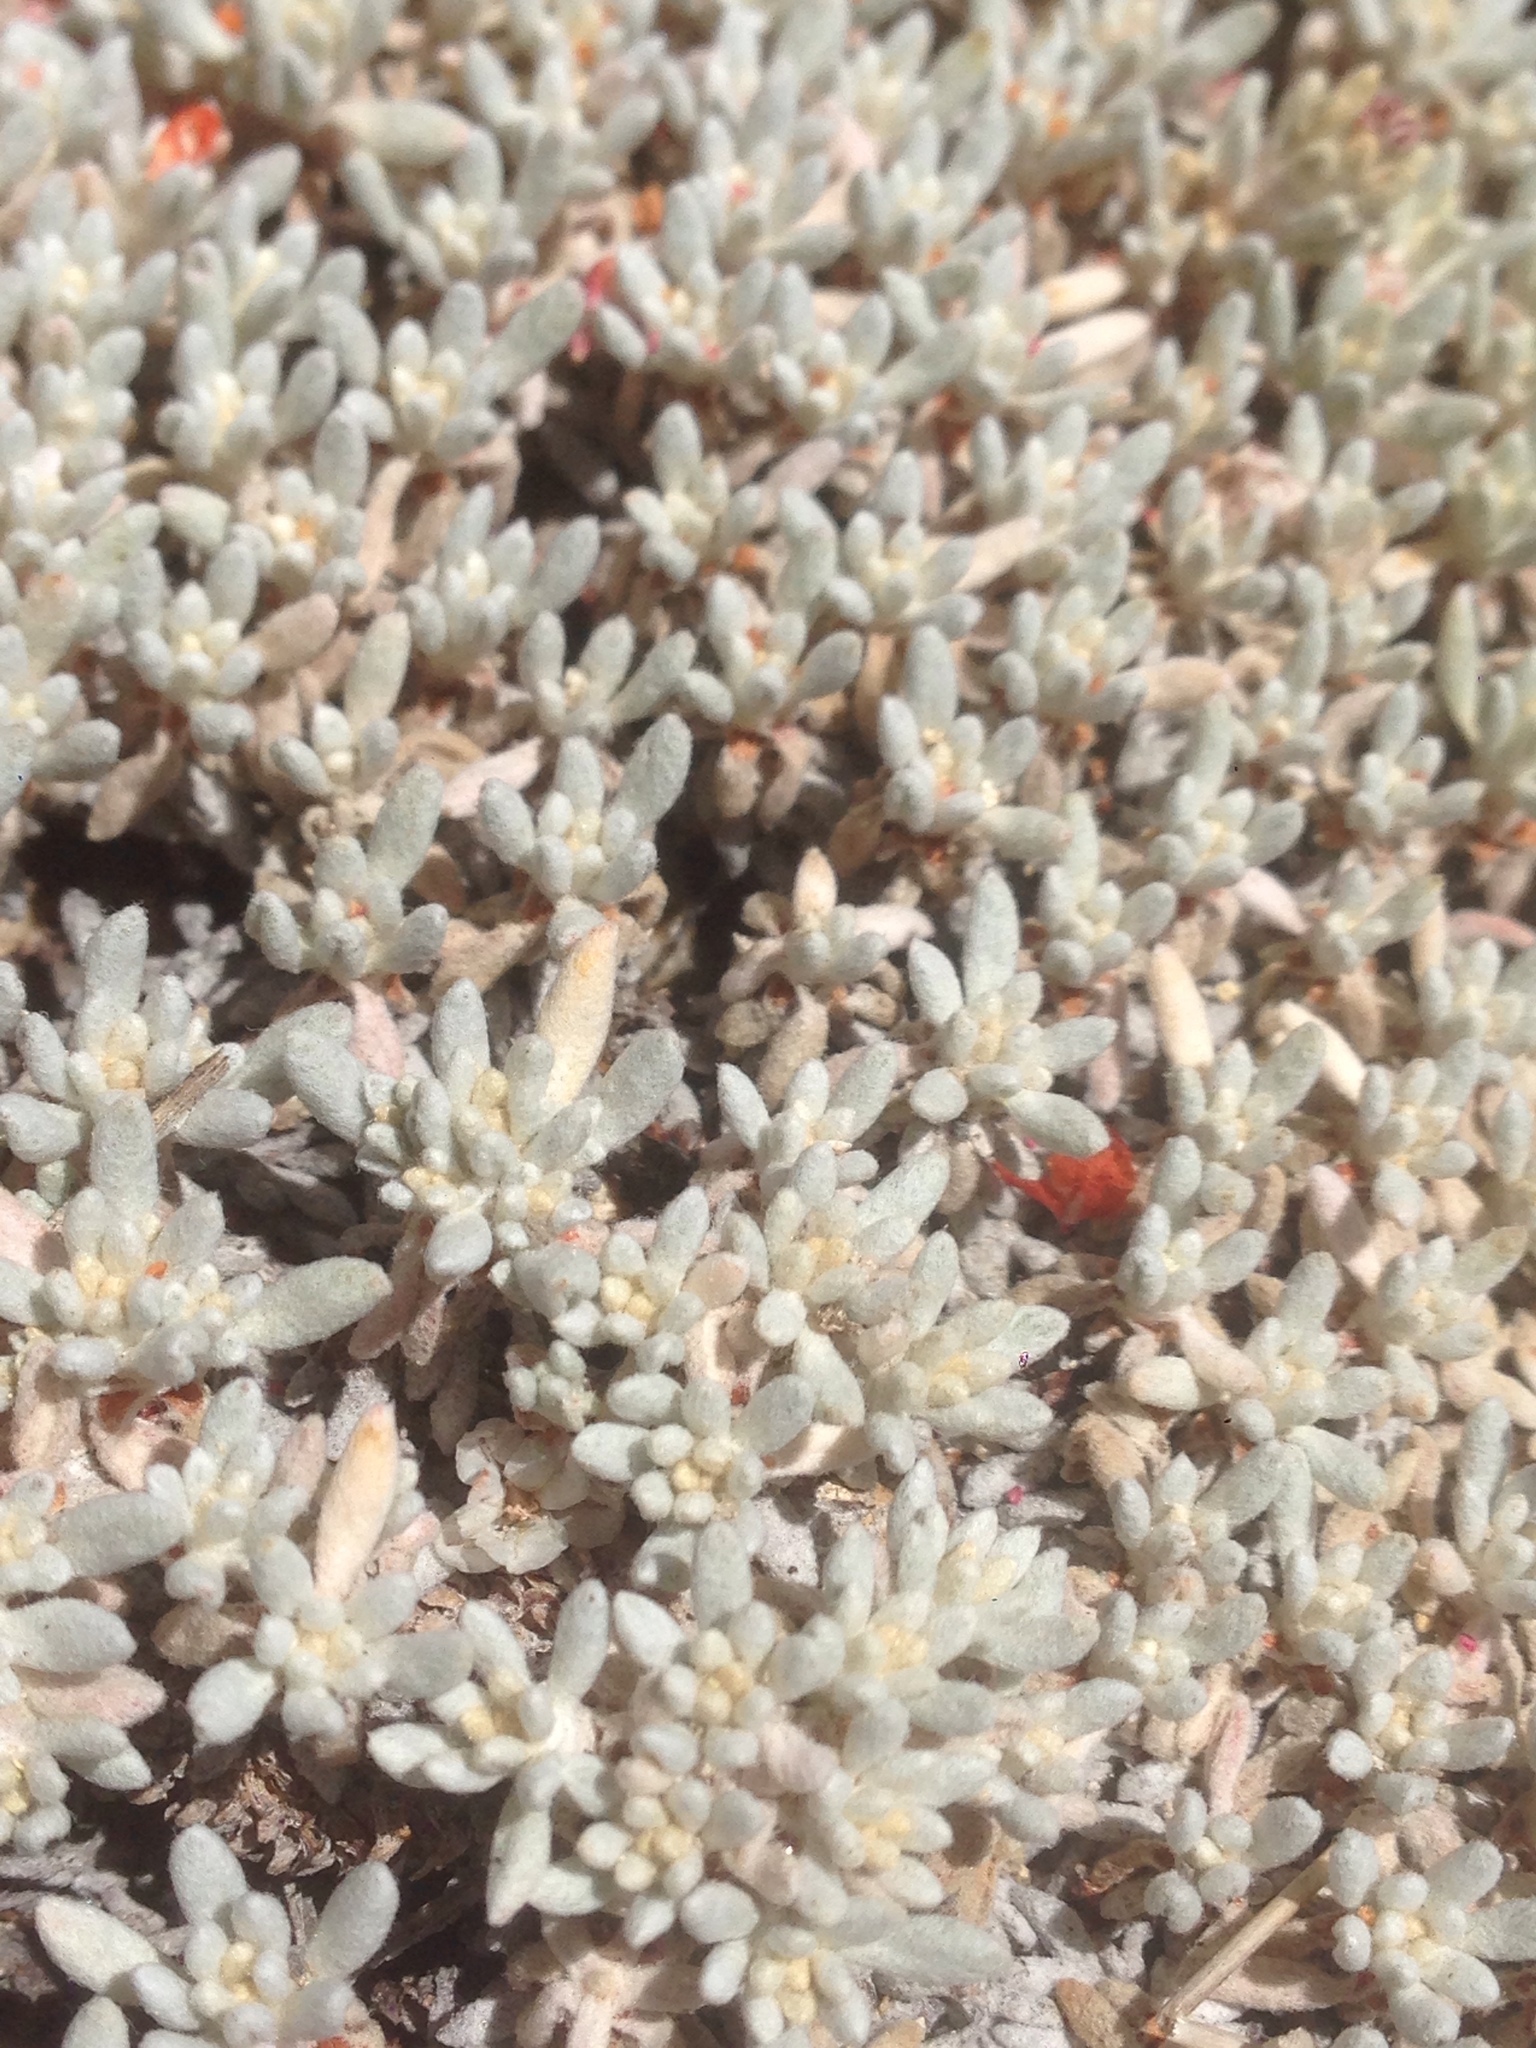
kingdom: Plantae
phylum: Tracheophyta
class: Magnoliopsida
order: Caryophyllales
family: Polygonaceae
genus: Eriogonum
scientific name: Eriogonum kennedyi
